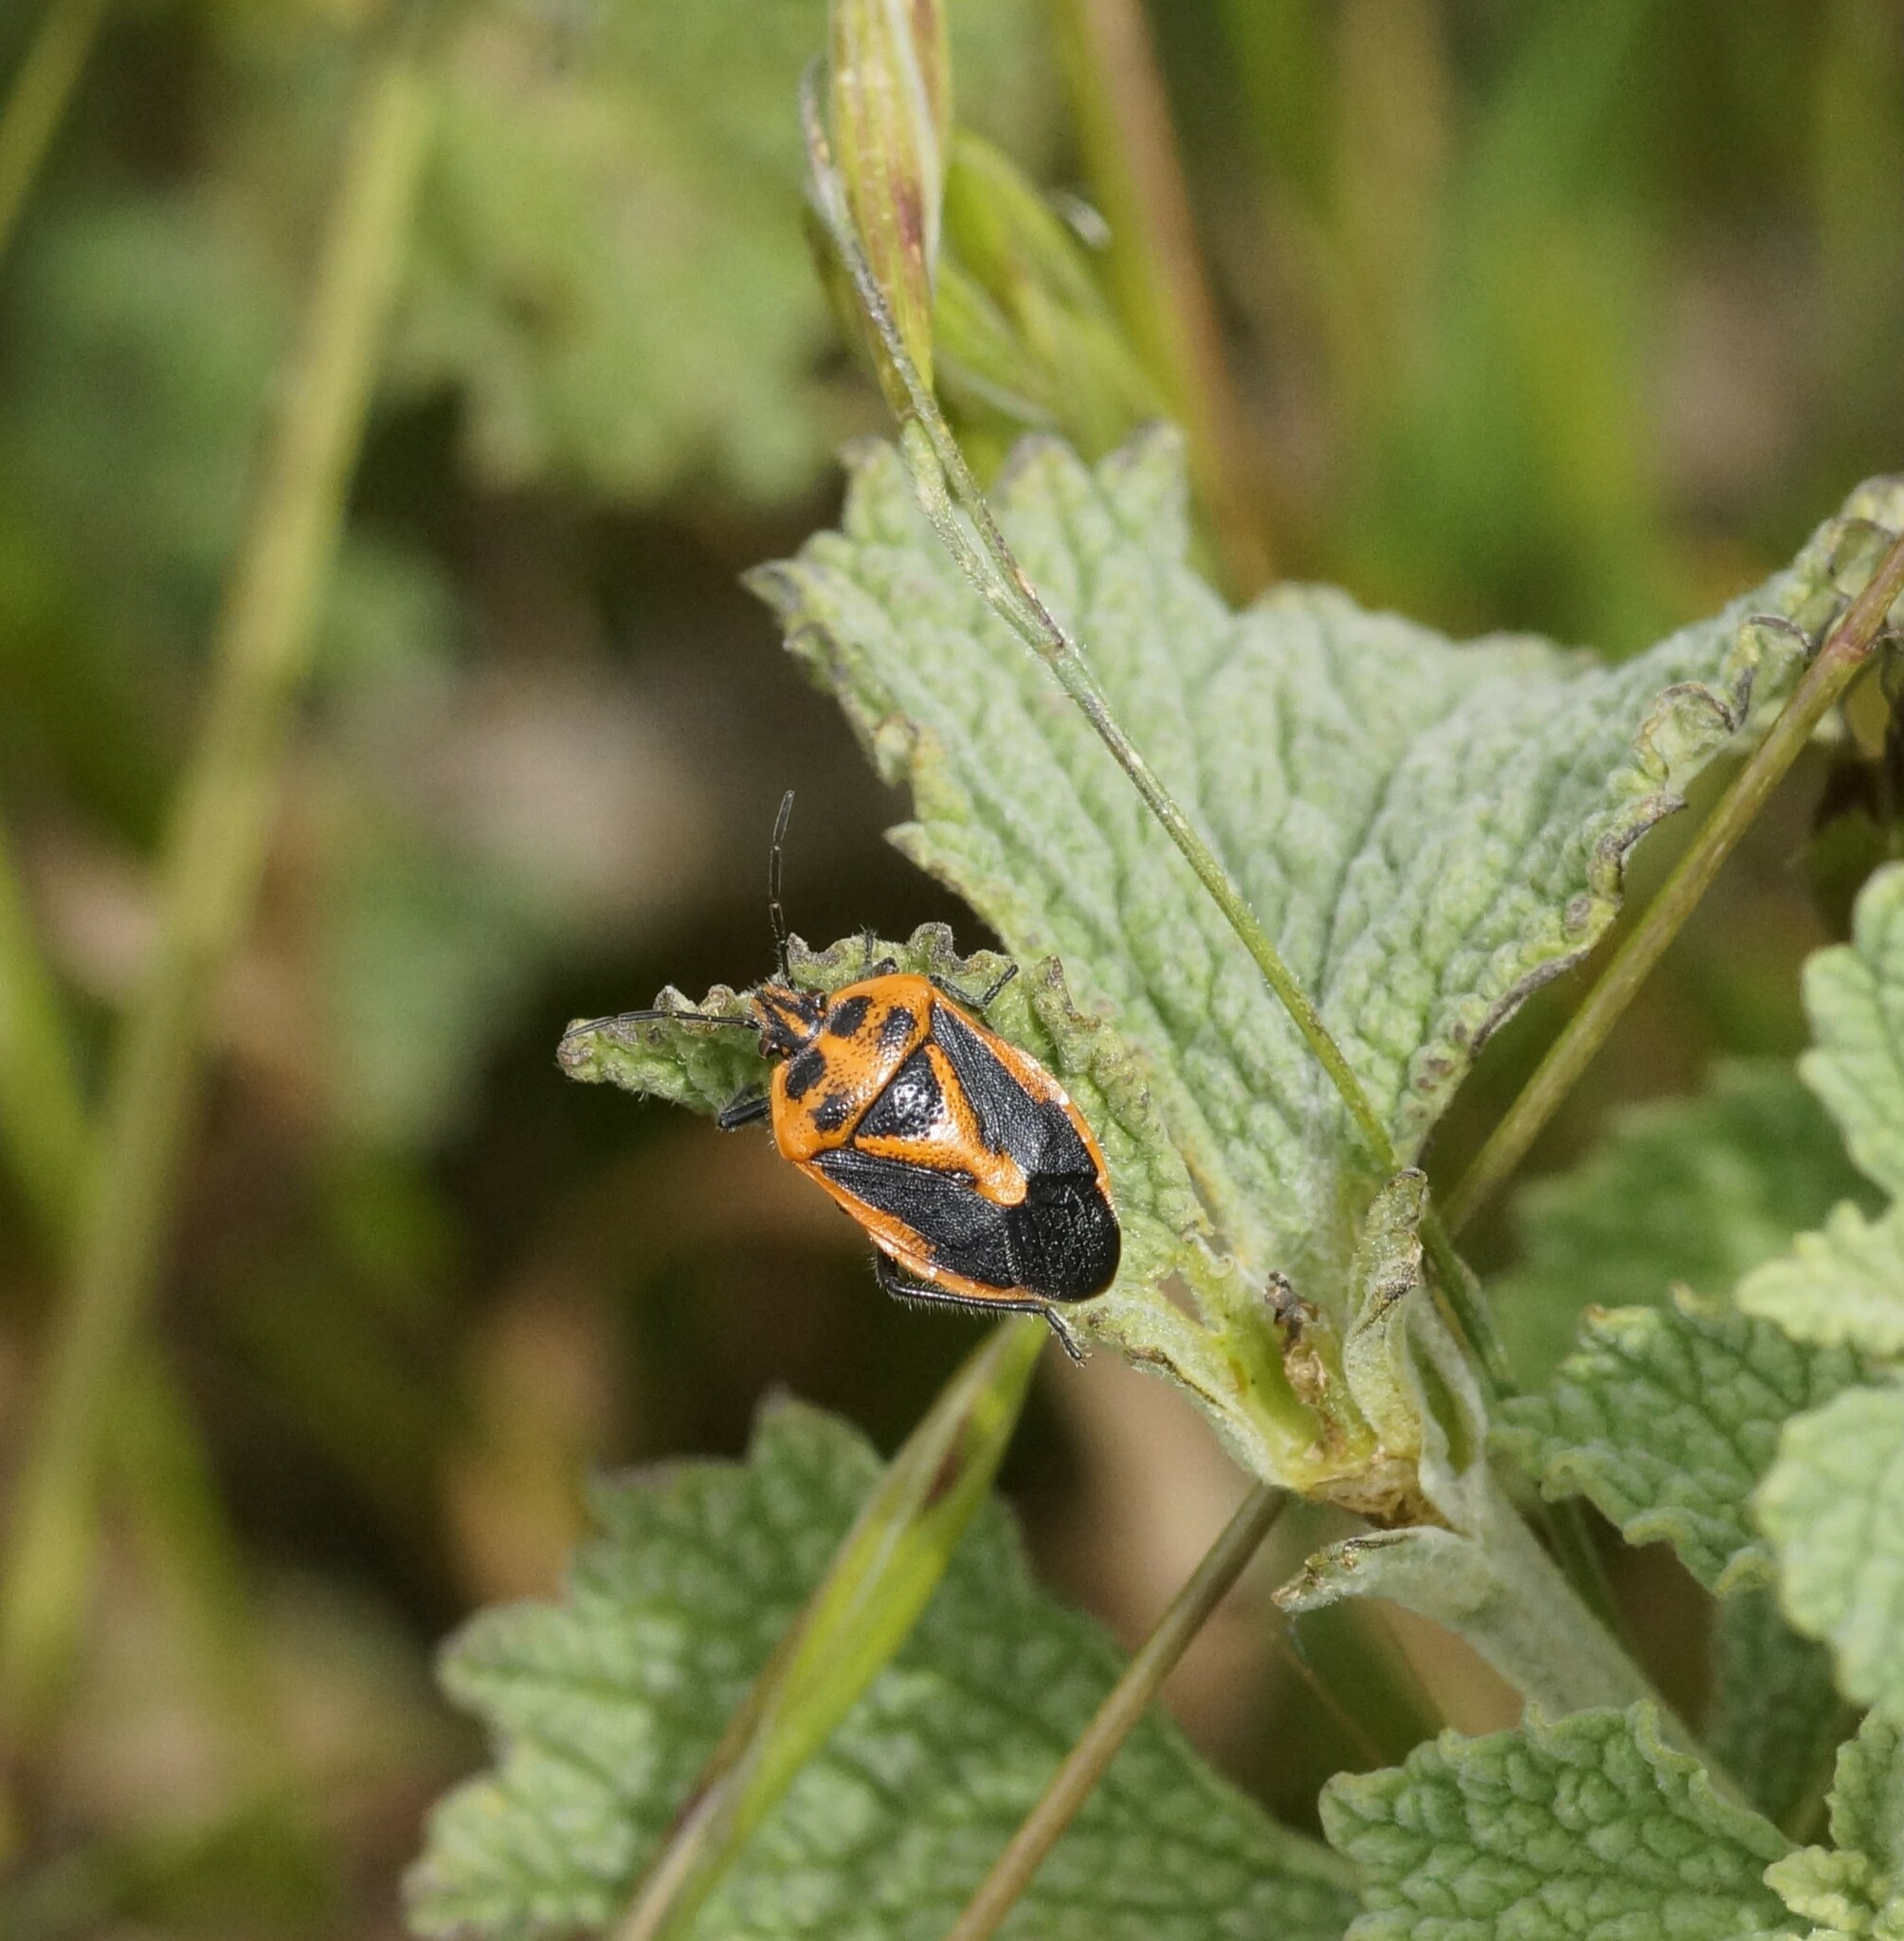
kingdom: Animalia
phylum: Arthropoda
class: Insecta
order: Hemiptera
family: Pentatomidae
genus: Agonoscelis
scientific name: Agonoscelis rutila
